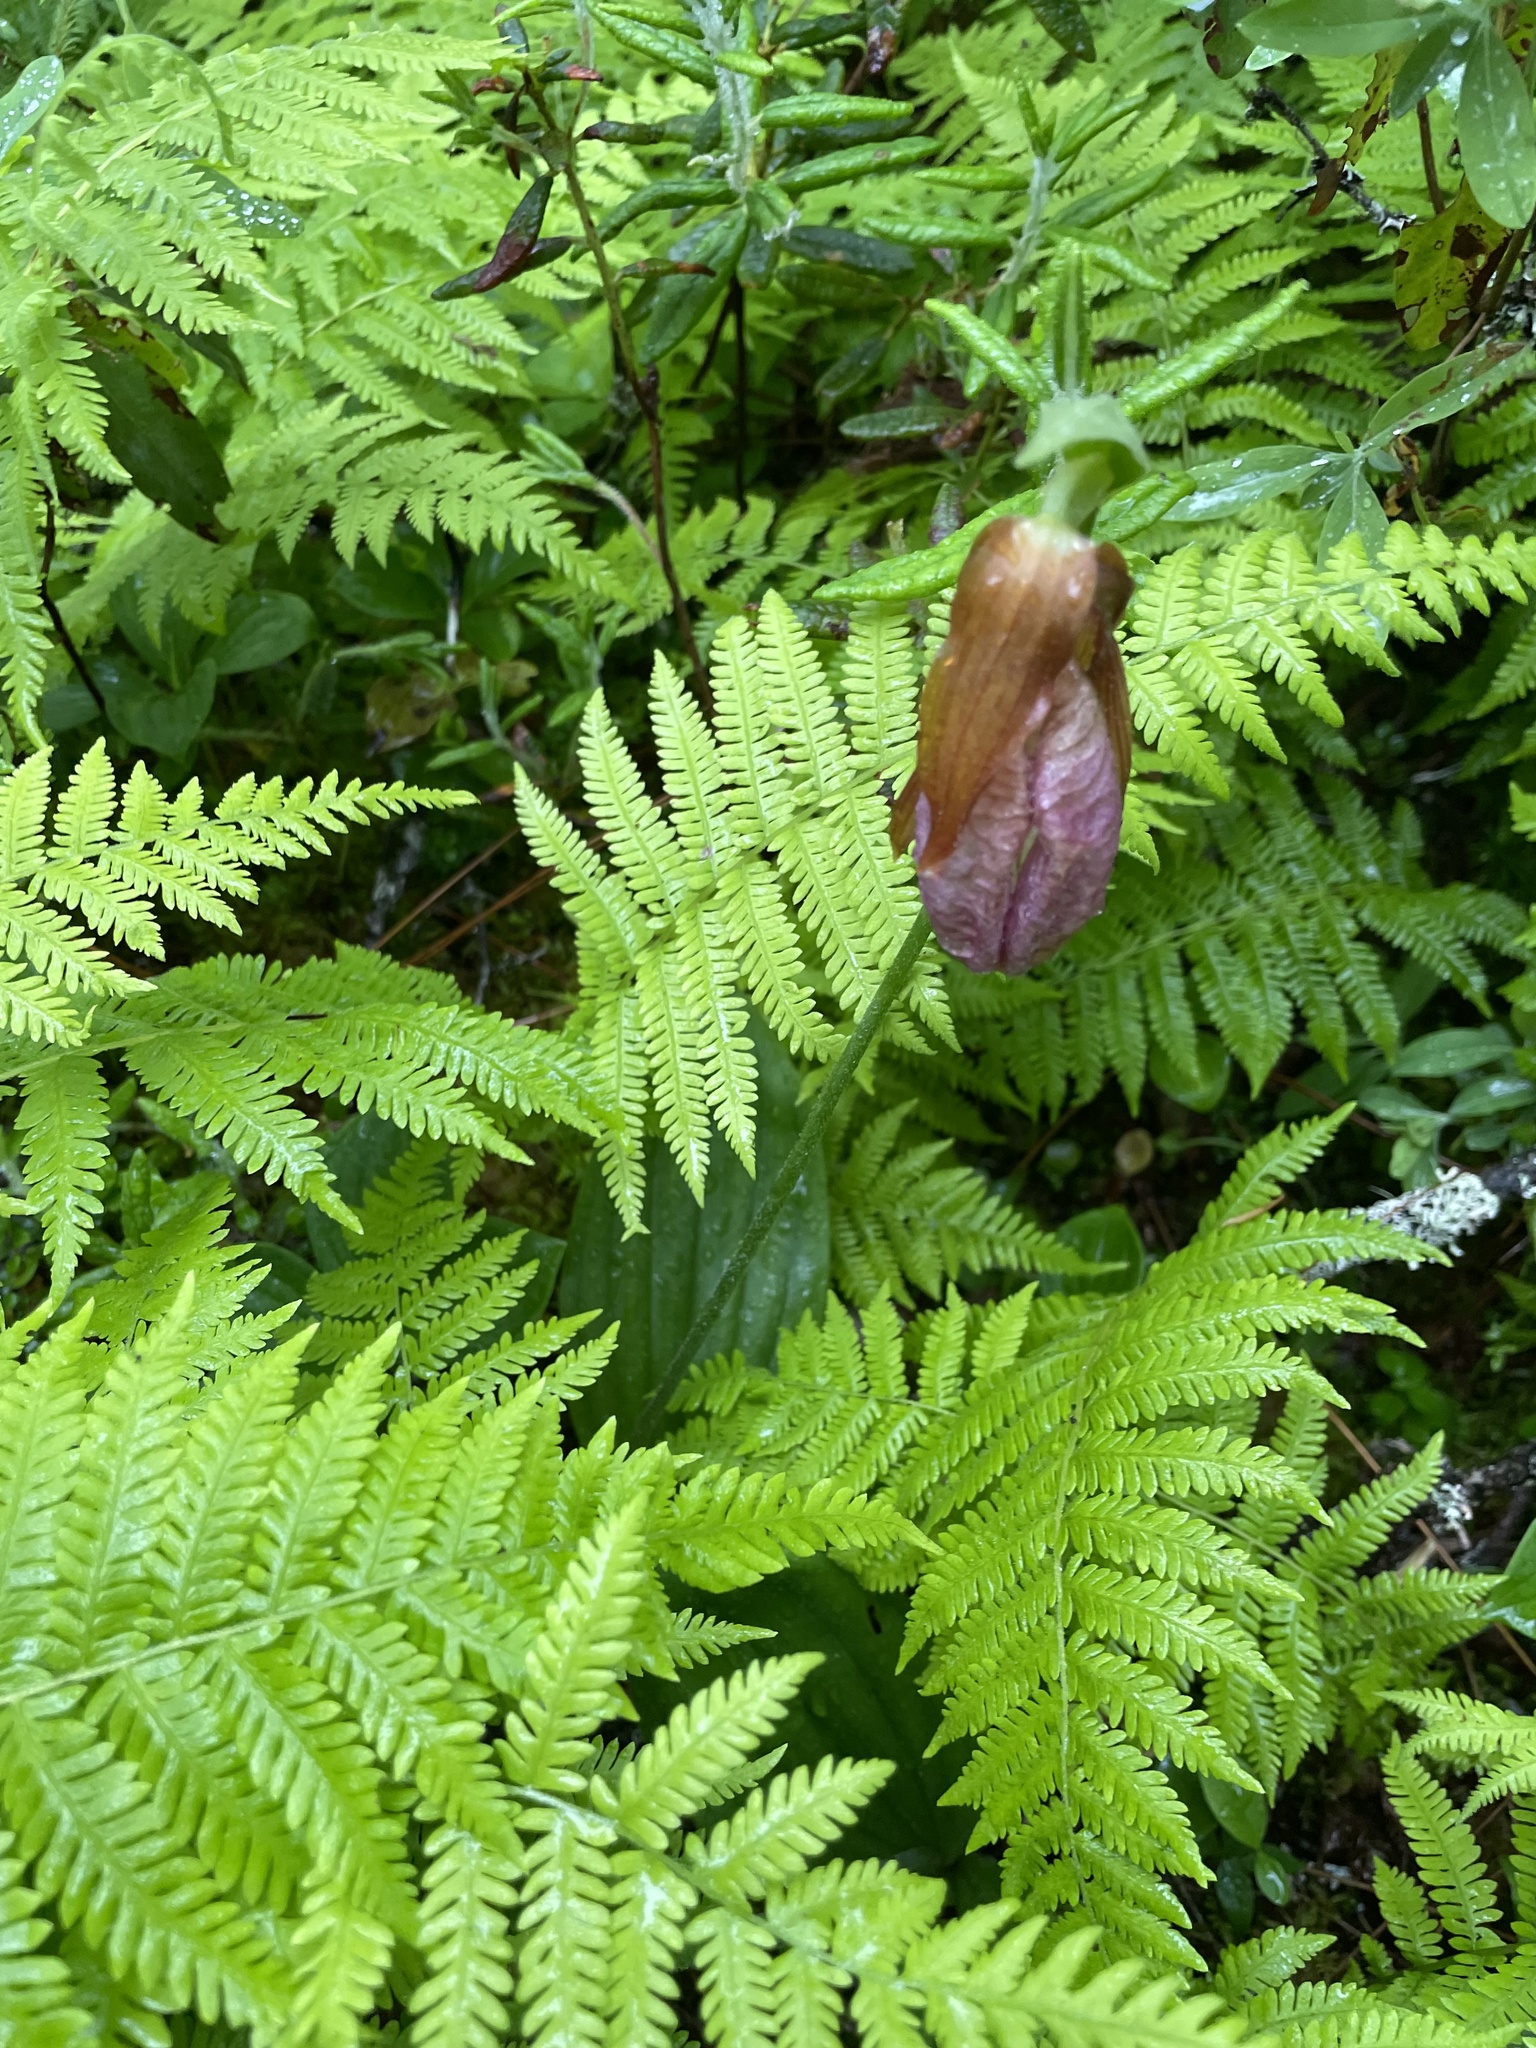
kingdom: Plantae
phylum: Tracheophyta
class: Liliopsida
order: Asparagales
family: Orchidaceae
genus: Cypripedium
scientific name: Cypripedium acaule
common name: Pink lady's-slipper
